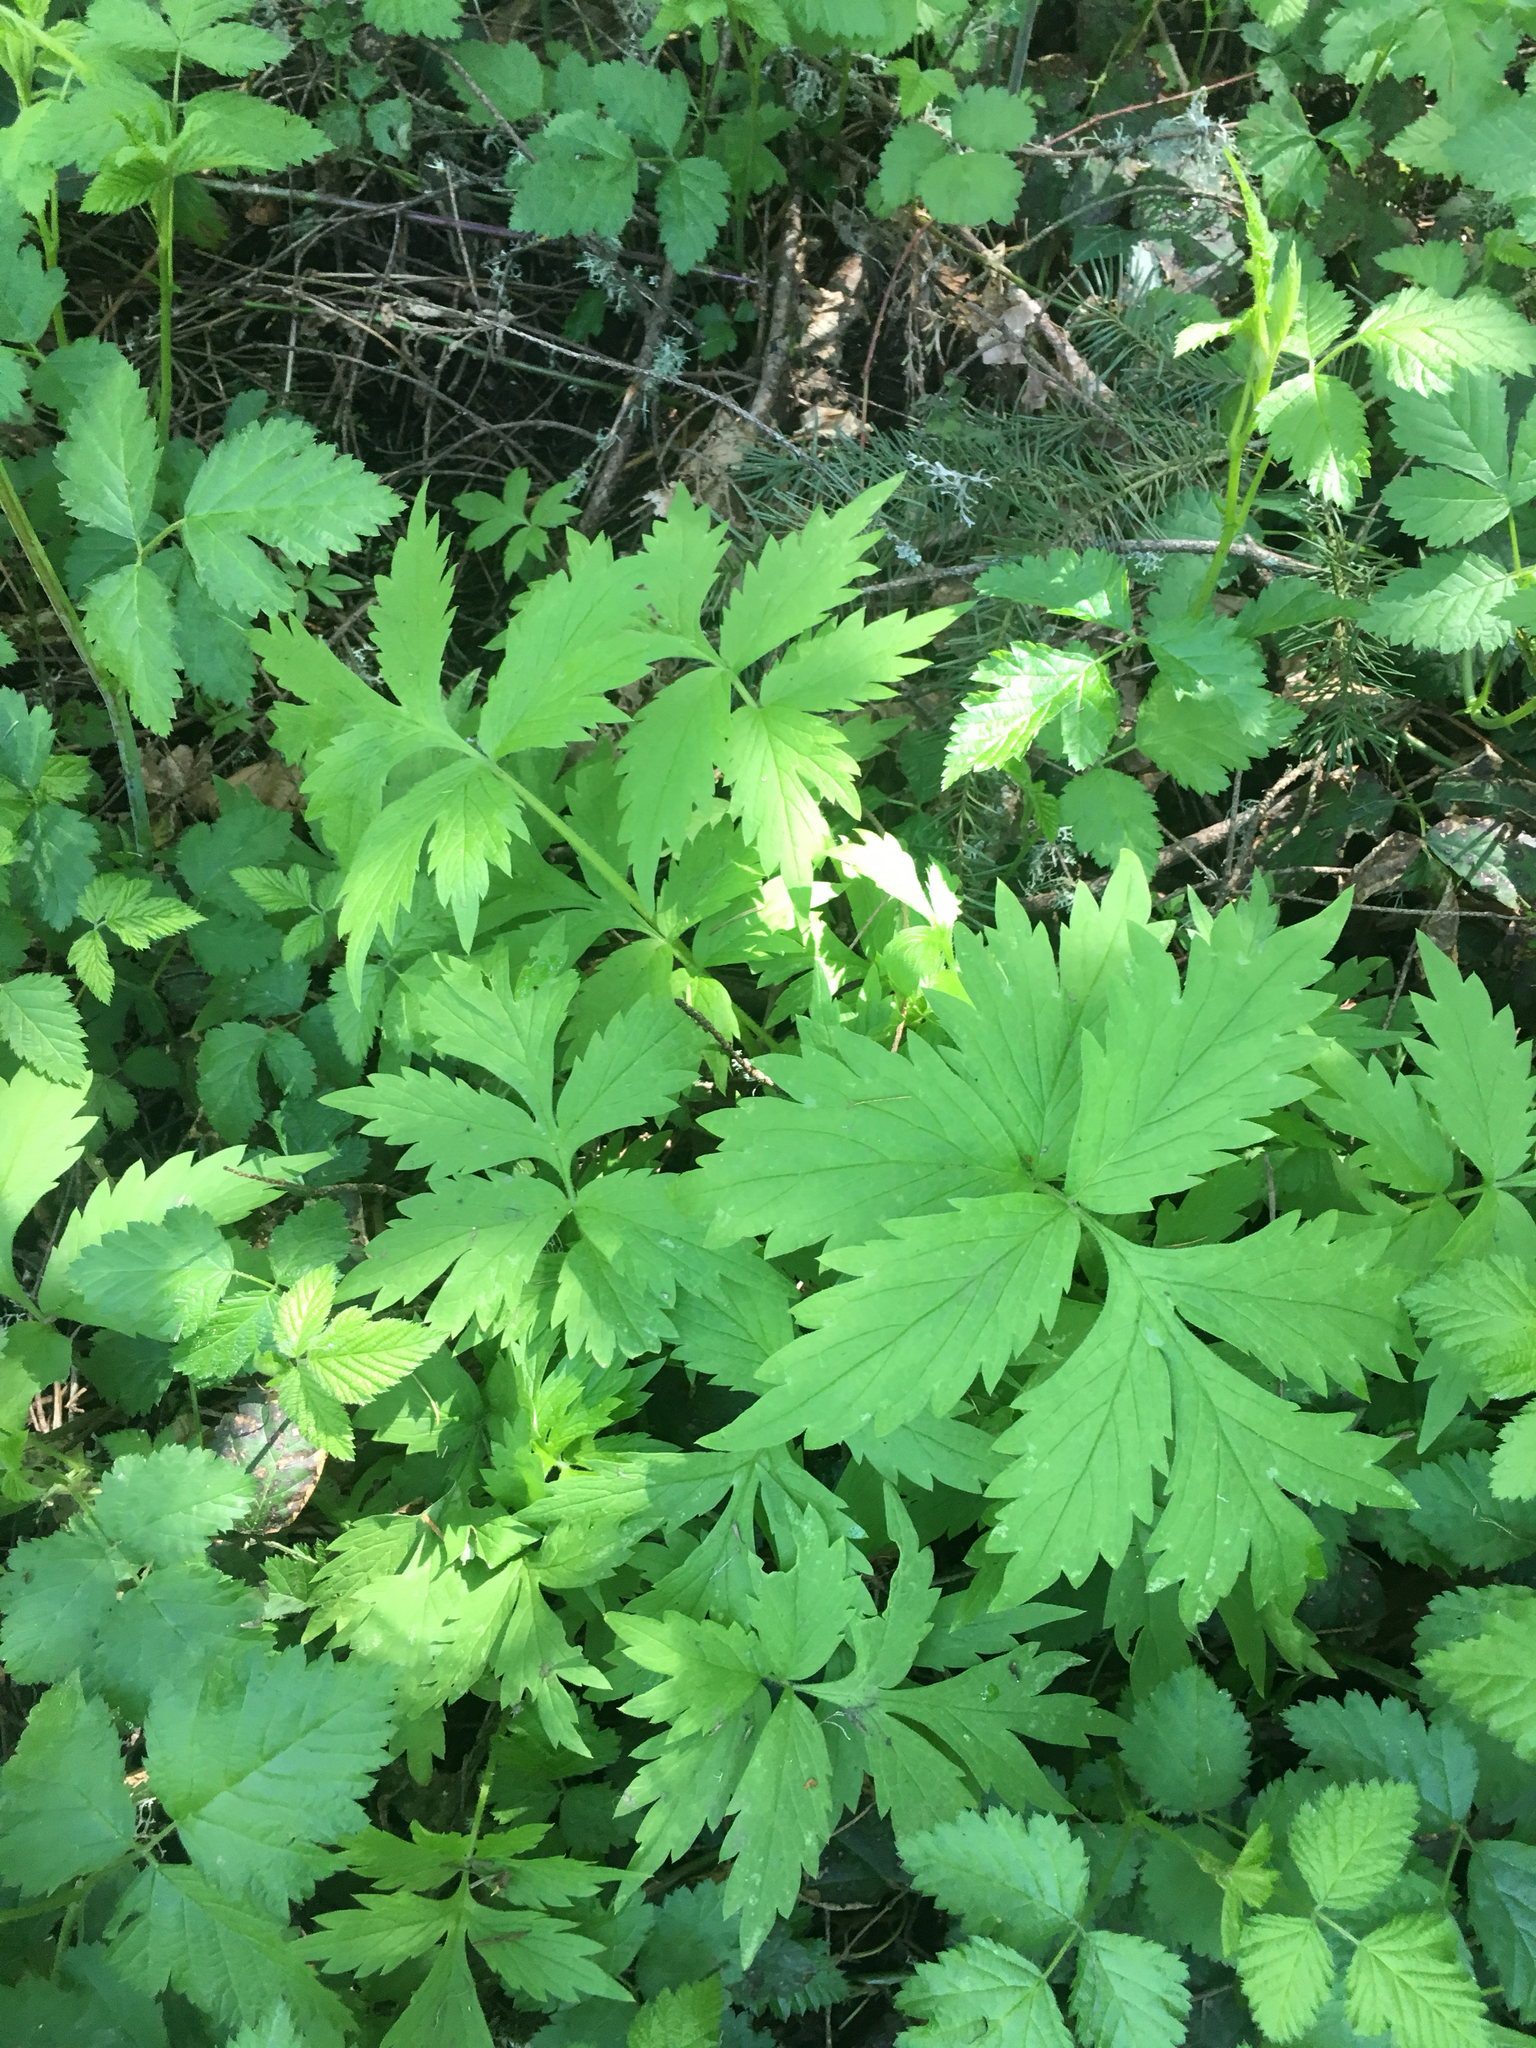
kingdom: Plantae
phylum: Tracheophyta
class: Magnoliopsida
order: Boraginales
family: Hydrophyllaceae
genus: Hydrophyllum
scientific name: Hydrophyllum tenuipes
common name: Pacific waterleaf
